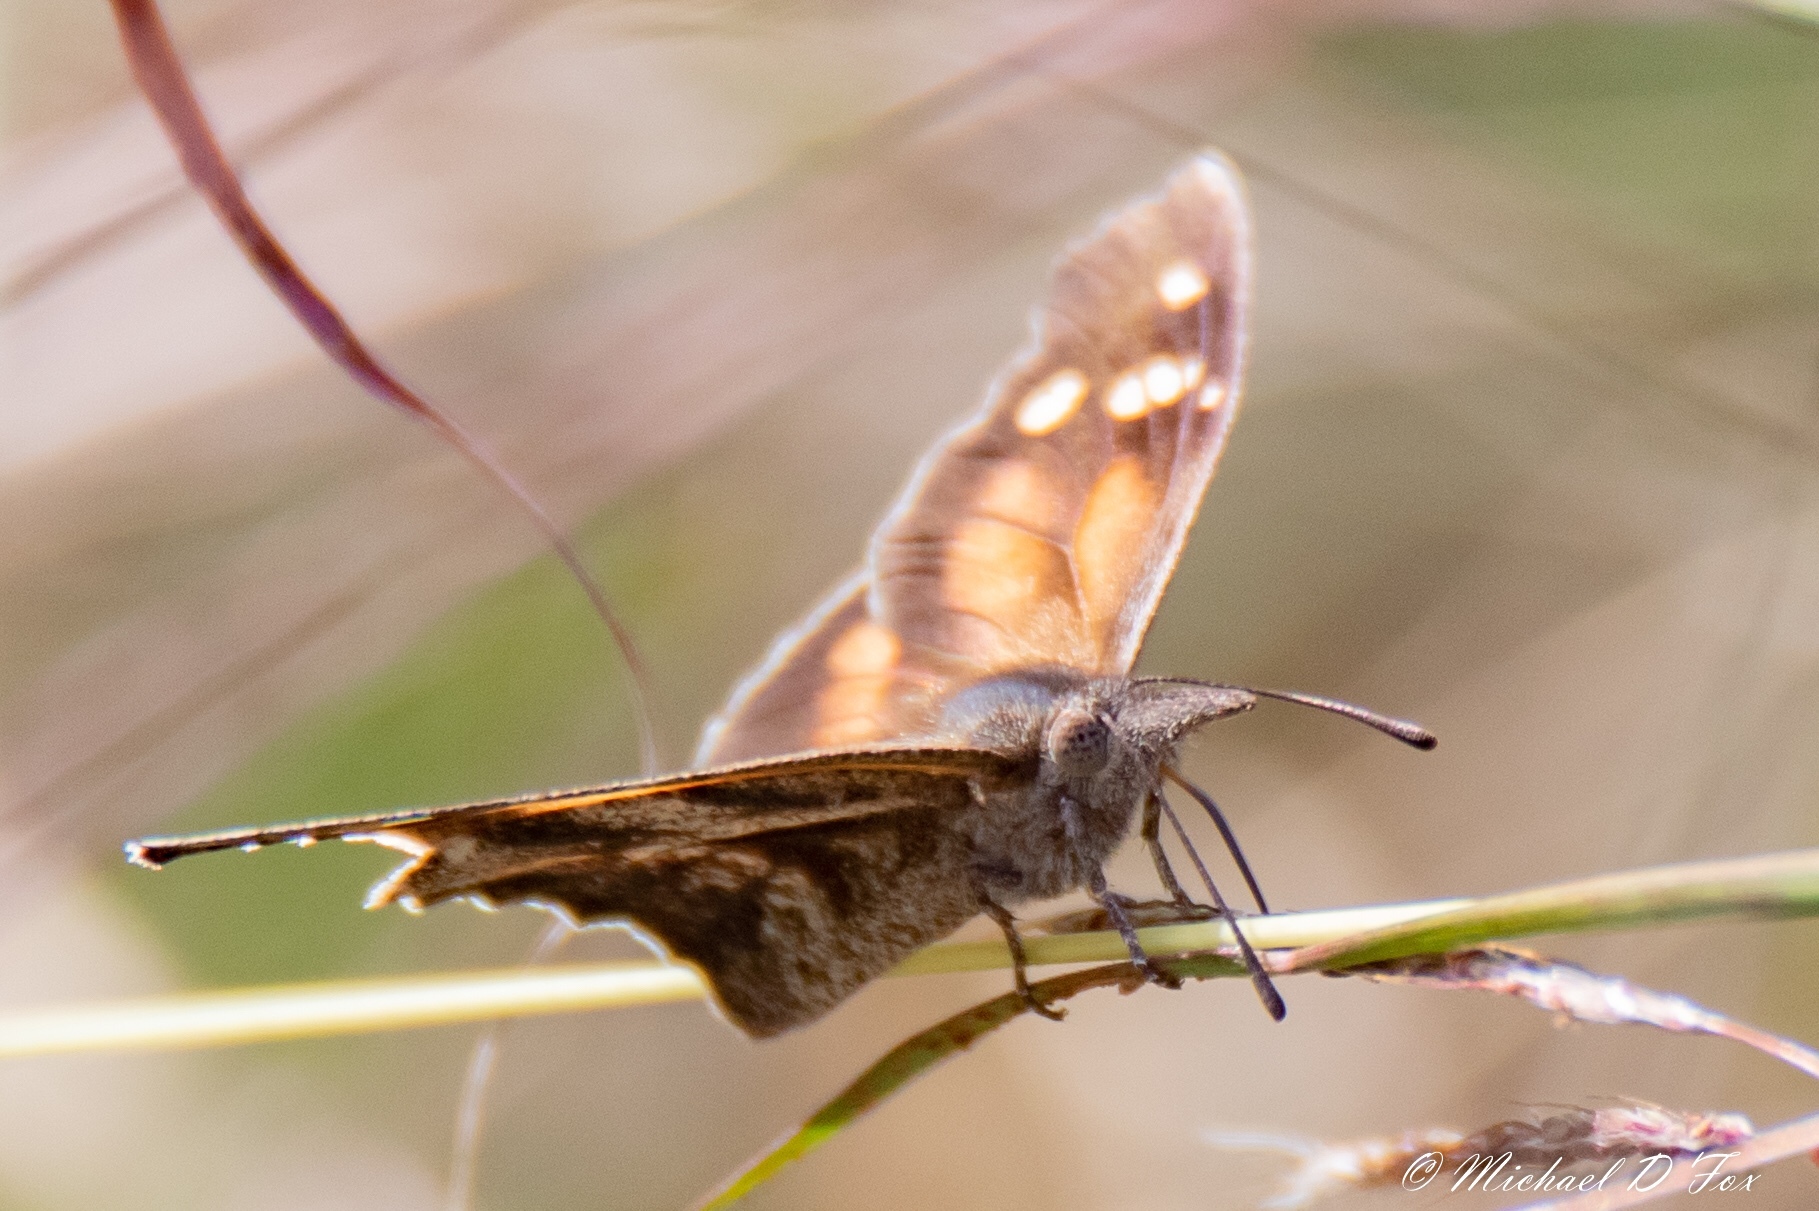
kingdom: Animalia
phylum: Arthropoda
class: Insecta
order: Lepidoptera
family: Nymphalidae
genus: Libytheana
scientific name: Libytheana carinenta
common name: American snout
